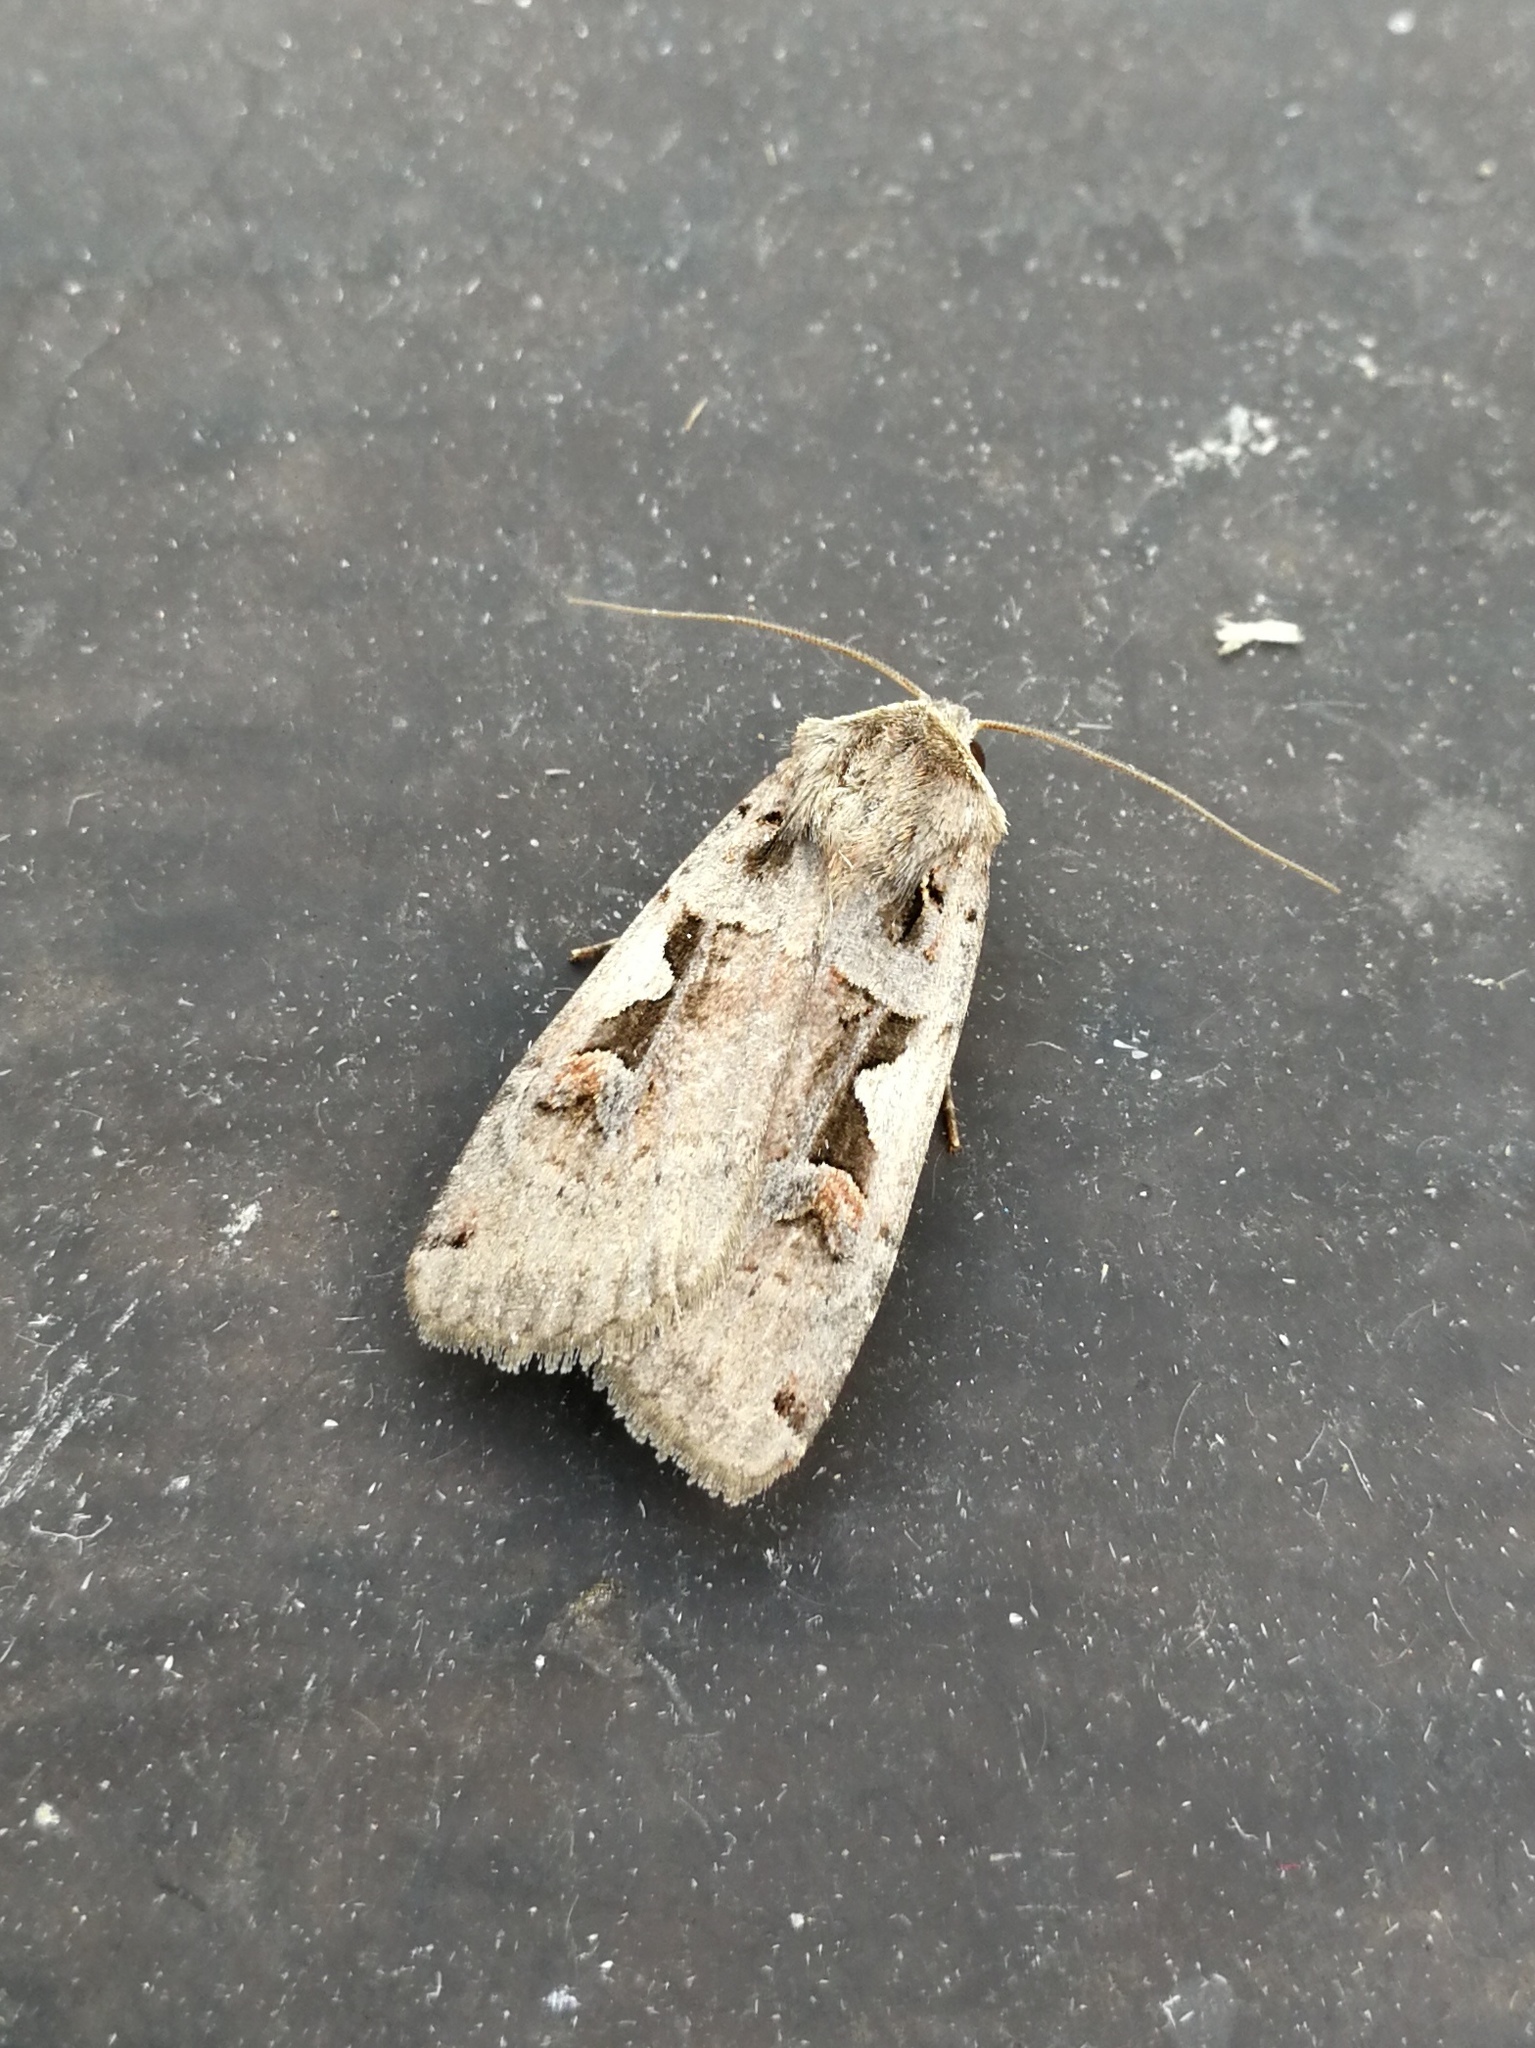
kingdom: Animalia
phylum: Arthropoda
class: Insecta
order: Lepidoptera
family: Noctuidae
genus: Xestia
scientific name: Xestia c-nigrum
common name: Setaceous hebrew character
